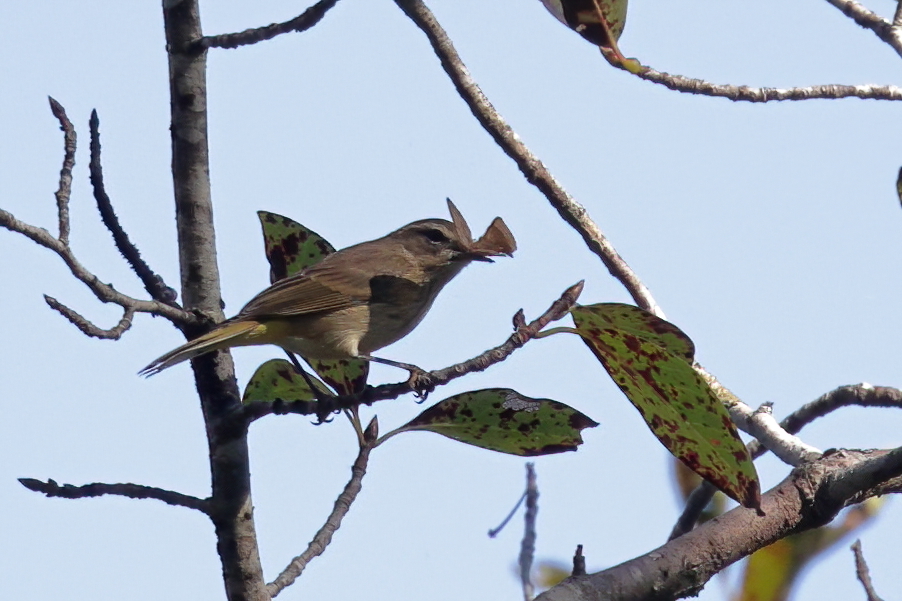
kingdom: Animalia
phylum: Chordata
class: Aves
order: Passeriformes
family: Parulidae
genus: Setophaga
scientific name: Setophaga palmarum
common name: Palm warbler
